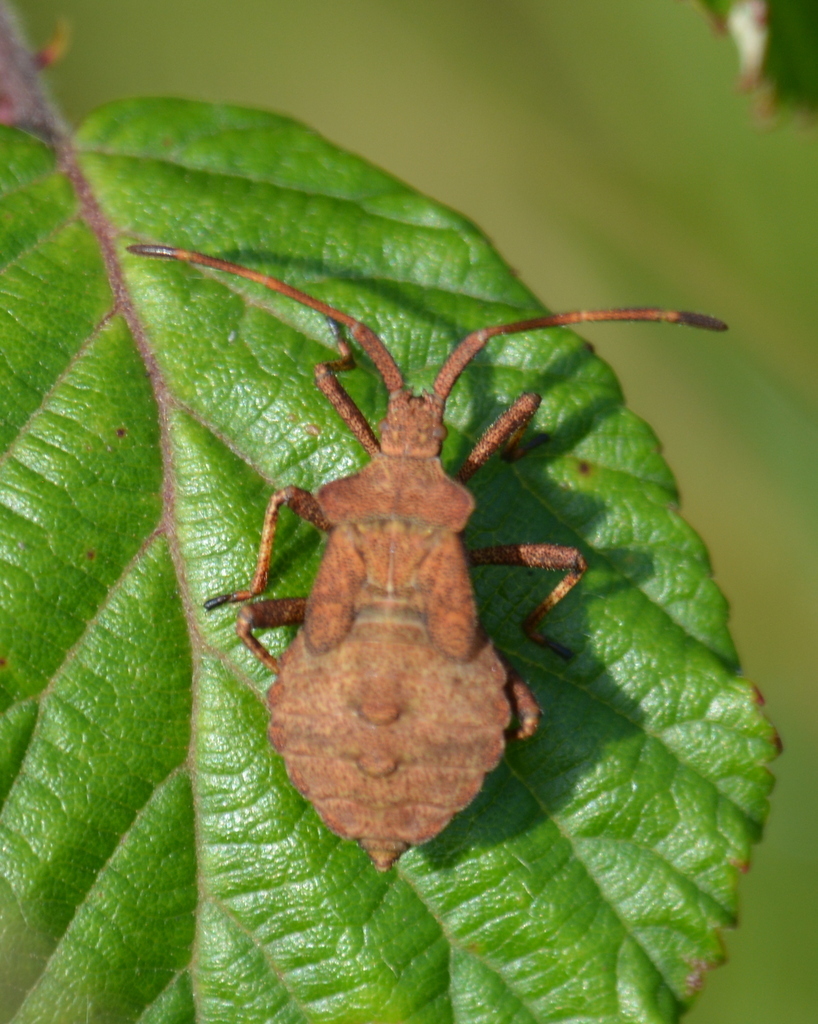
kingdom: Animalia
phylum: Arthropoda
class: Insecta
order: Hemiptera
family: Coreidae
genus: Coreus
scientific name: Coreus marginatus
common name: Dock bug
